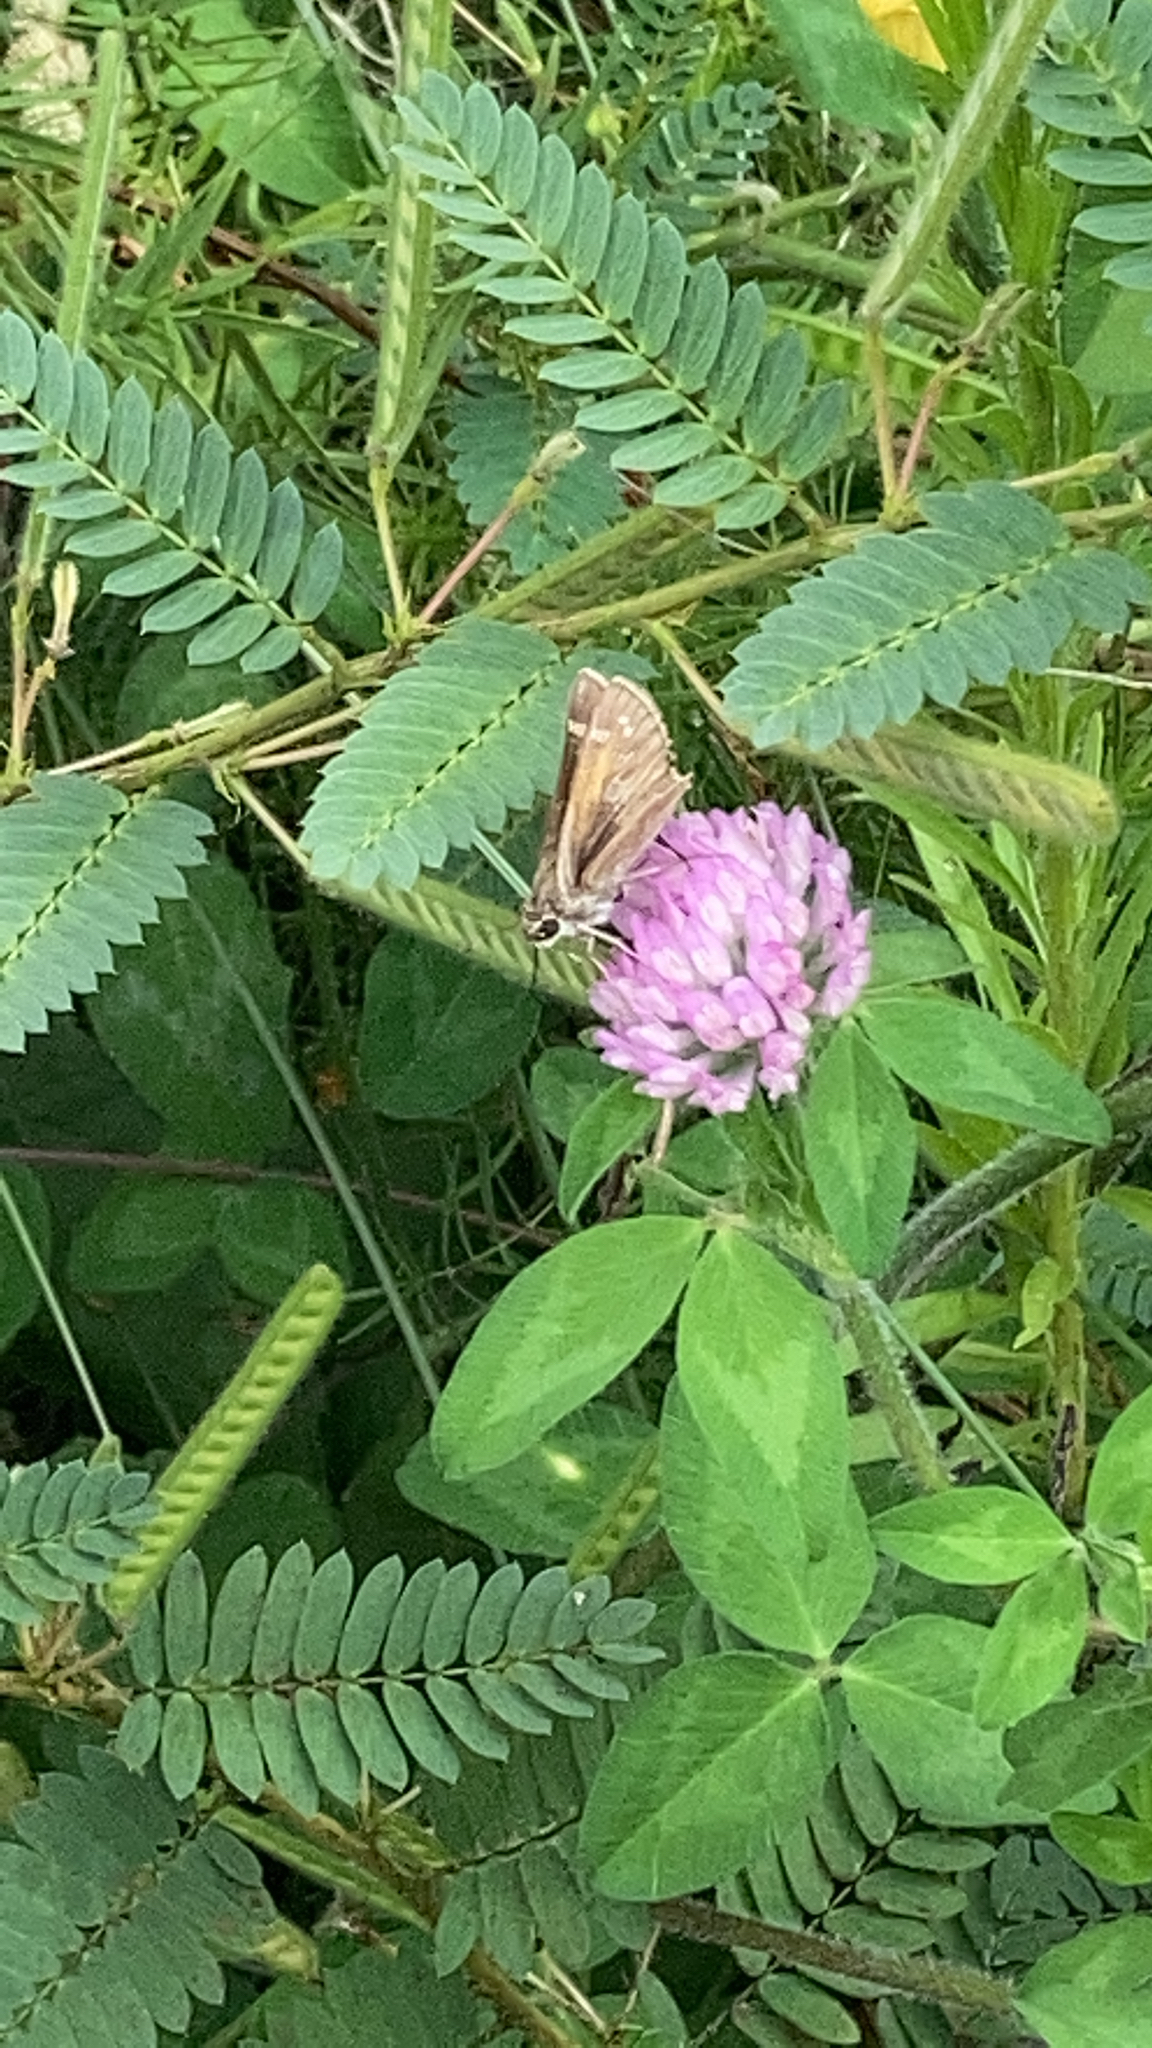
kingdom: Plantae
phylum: Tracheophyta
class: Magnoliopsida
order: Fabales
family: Fabaceae
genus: Trifolium
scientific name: Trifolium pratense
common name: Red clover
